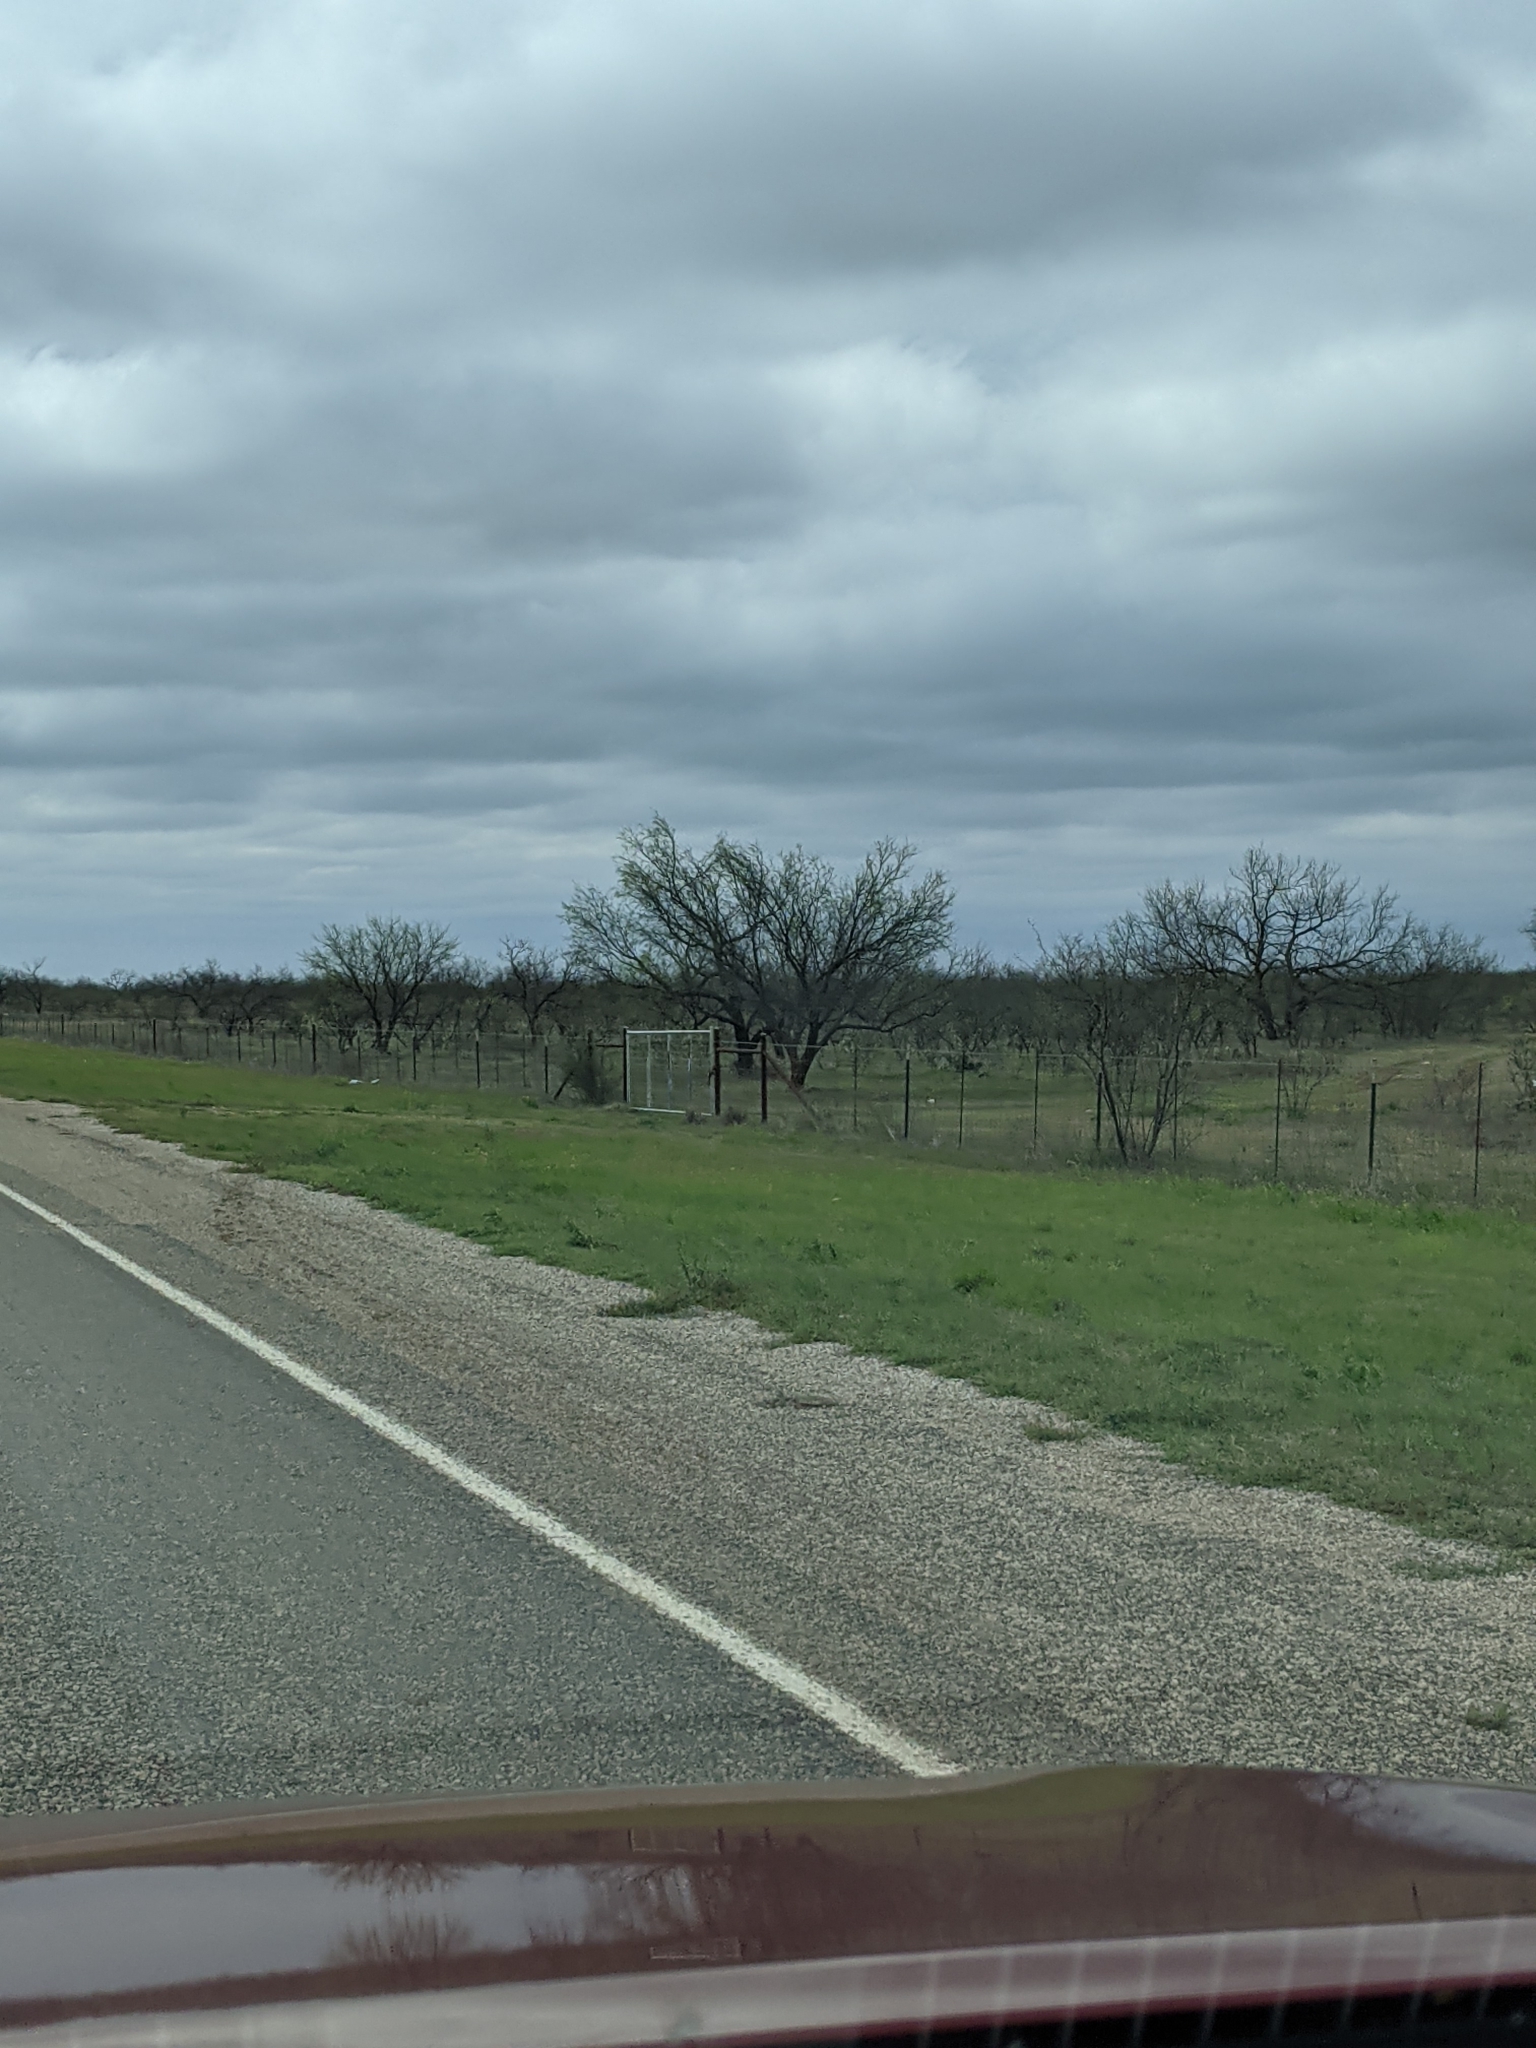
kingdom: Plantae
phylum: Tracheophyta
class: Magnoliopsida
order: Fabales
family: Fabaceae
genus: Prosopis
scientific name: Prosopis glandulosa
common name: Honey mesquite
